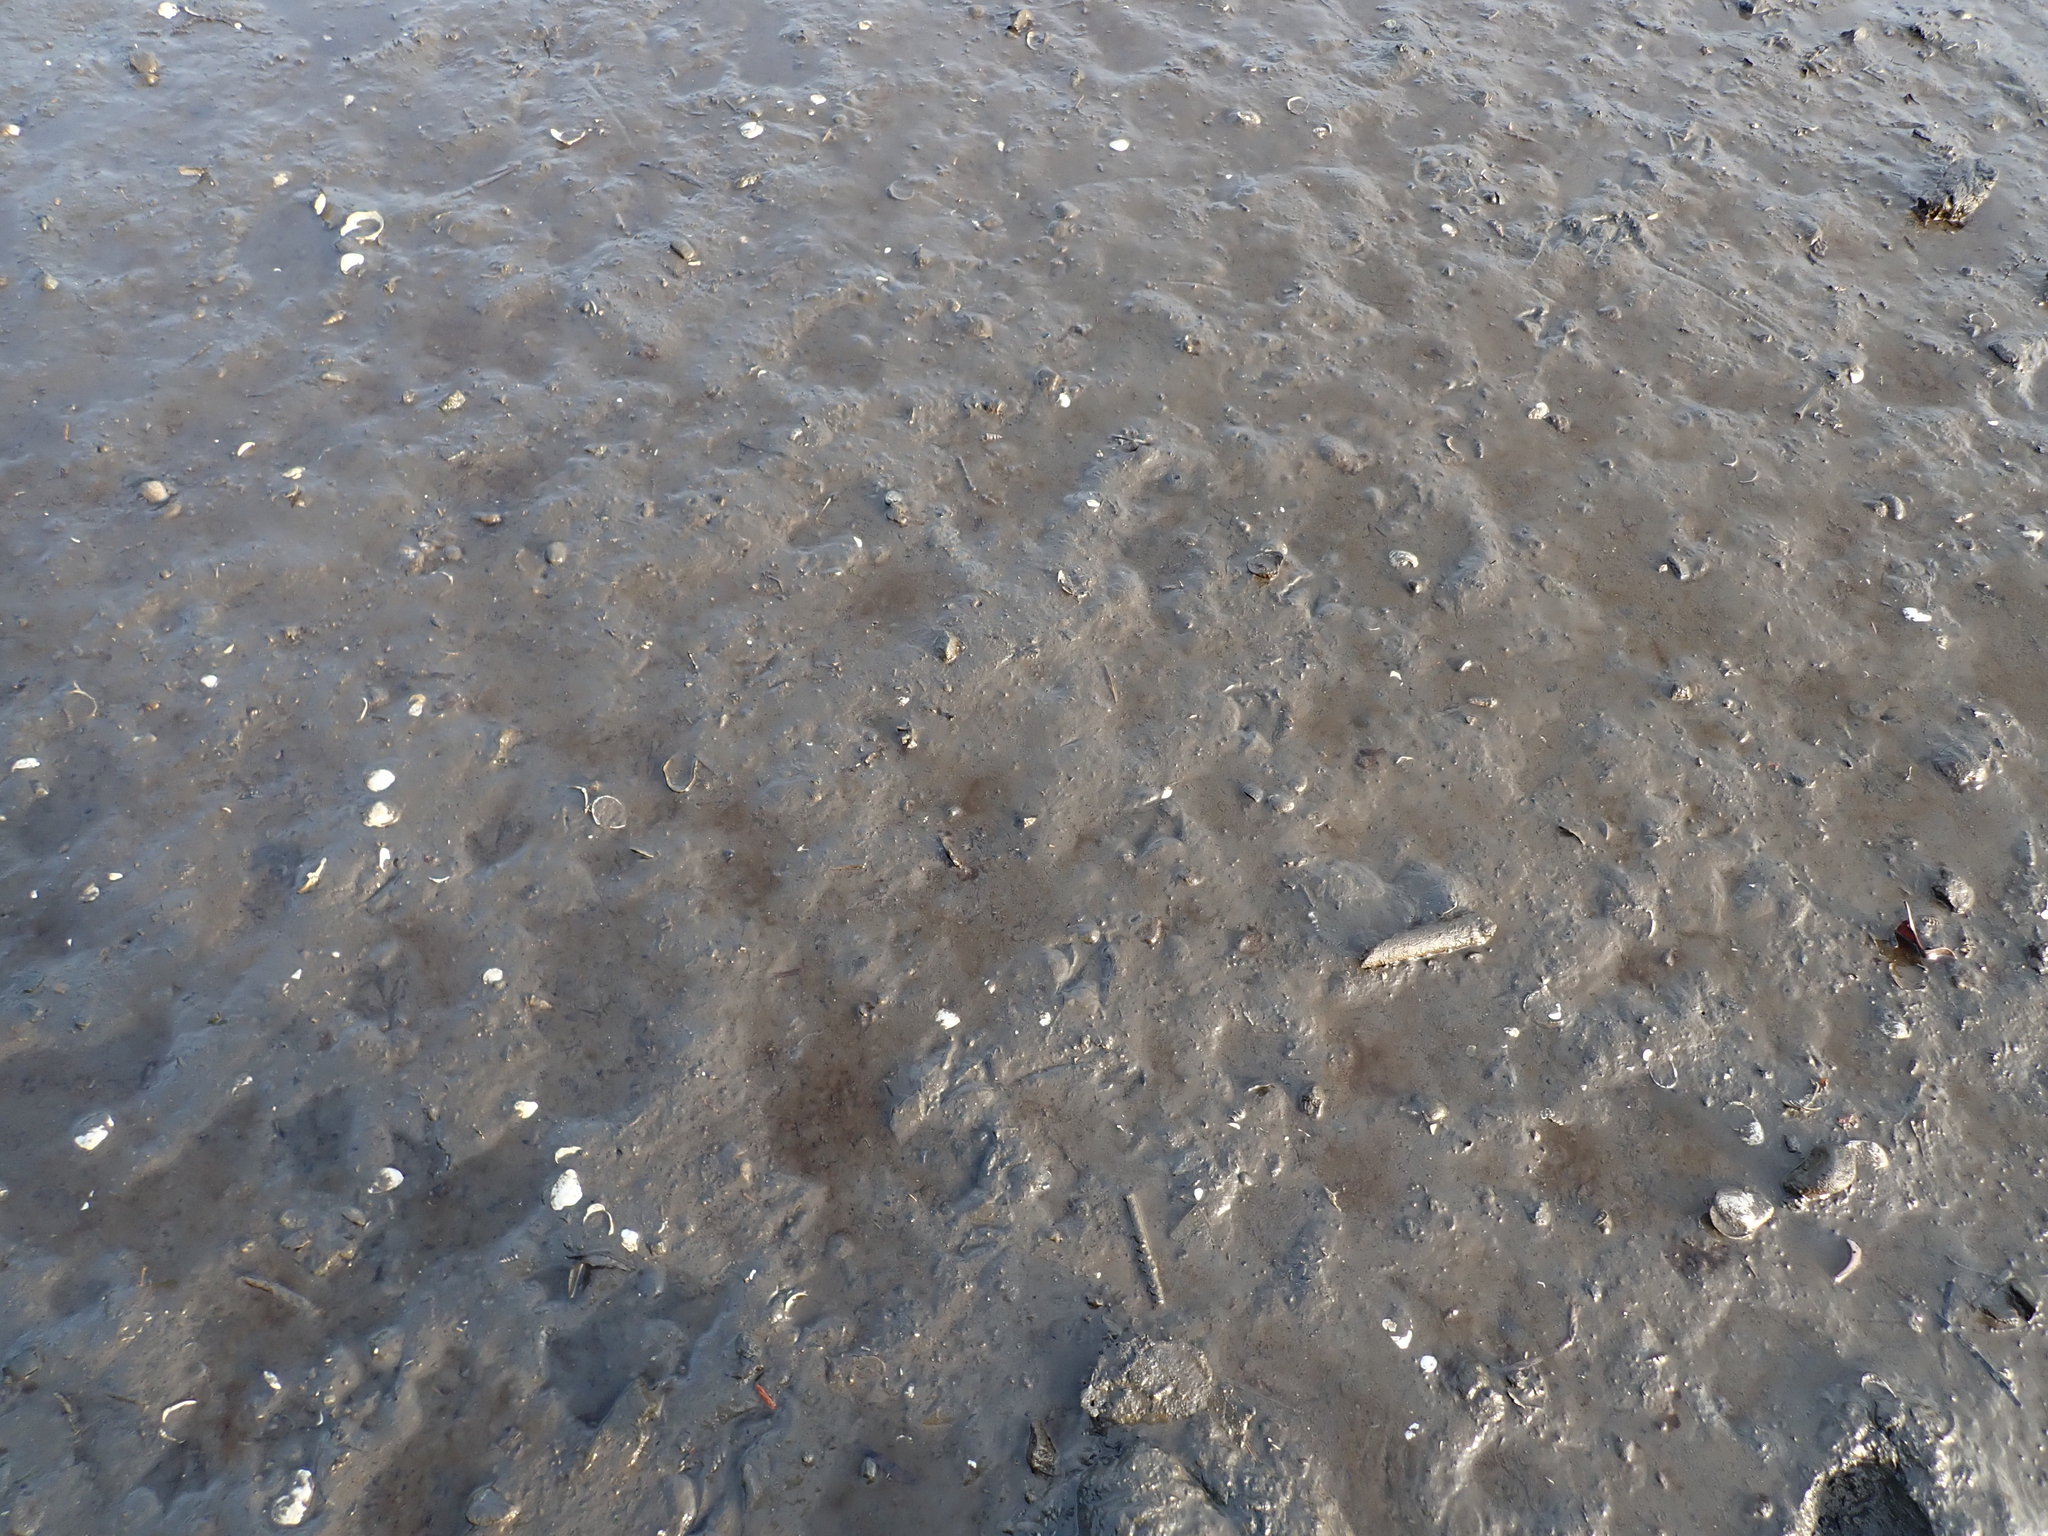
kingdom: Animalia
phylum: Mollusca
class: Gastropoda
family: Batillariidae
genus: Batillaria
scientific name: Batillaria attramentaria
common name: Japanese false cerith
